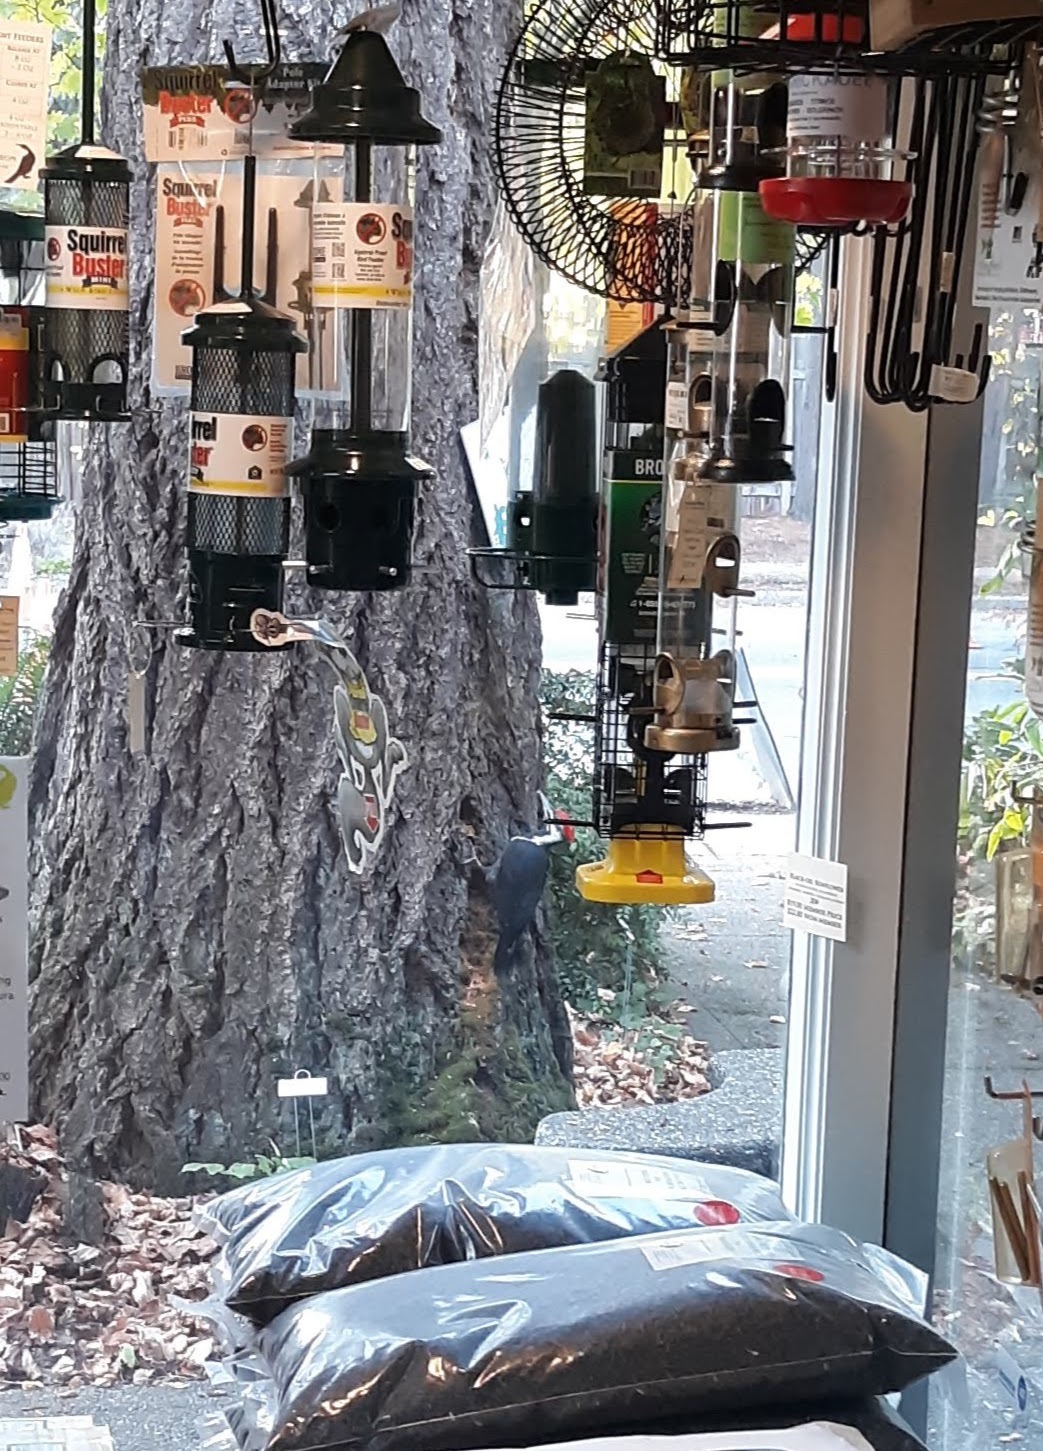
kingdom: Animalia
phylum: Chordata
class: Aves
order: Piciformes
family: Picidae
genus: Dryocopus
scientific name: Dryocopus pileatus
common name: Pileated woodpecker
